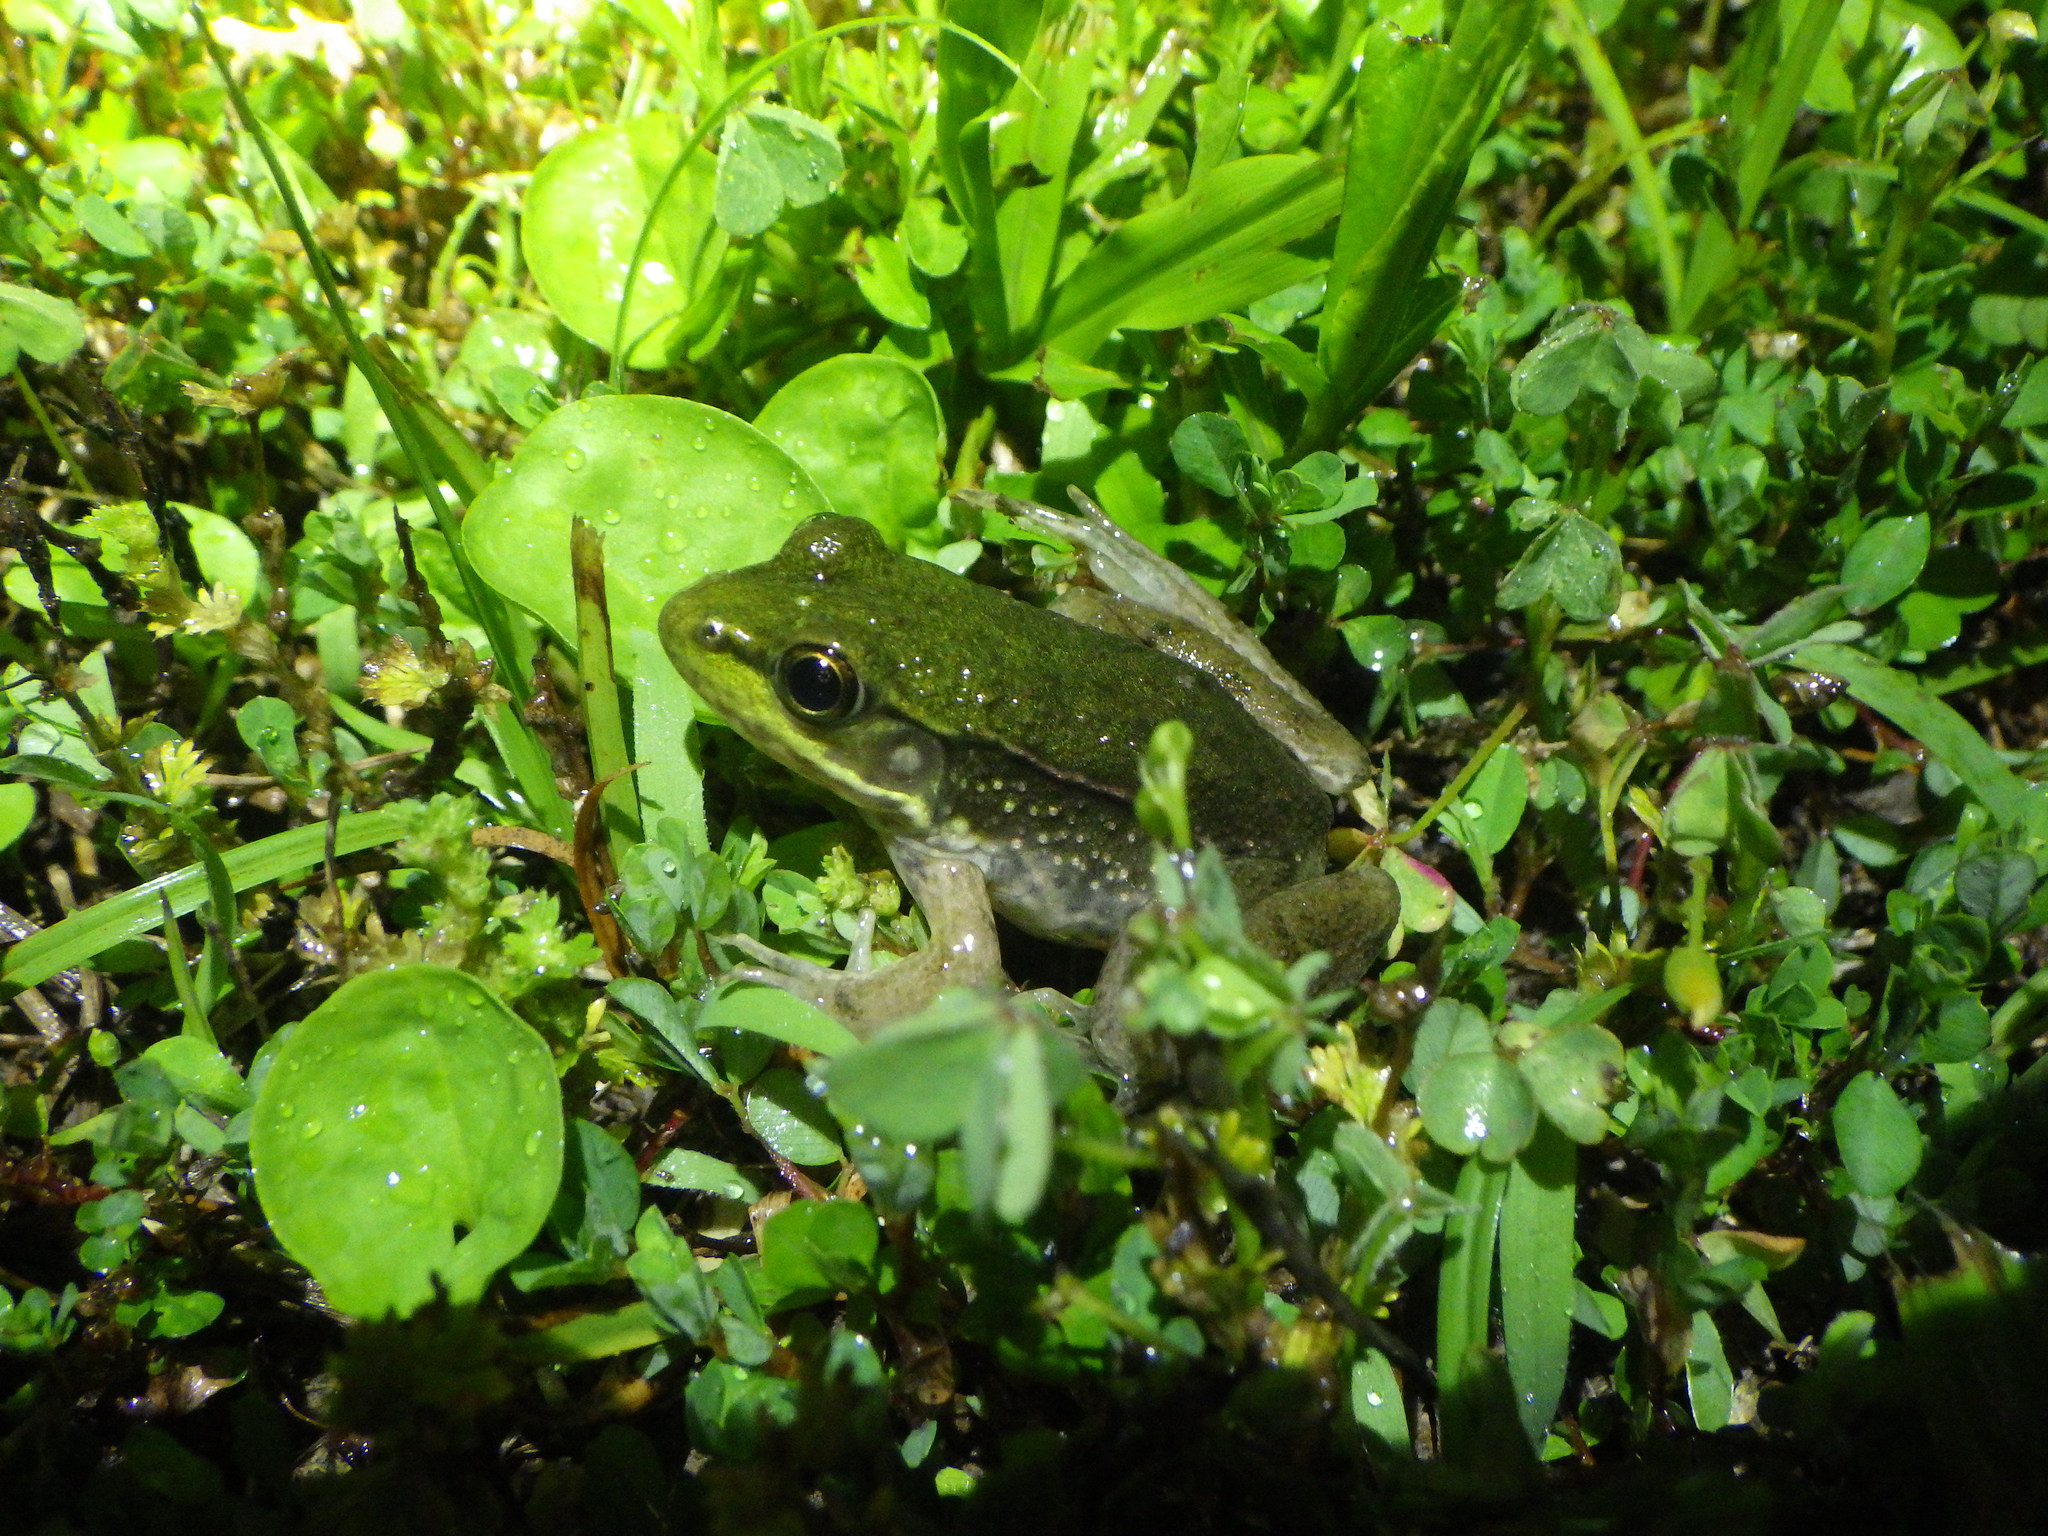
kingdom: Animalia
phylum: Chordata
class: Amphibia
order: Anura
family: Ranidae
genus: Lithobates
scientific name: Lithobates clamitans
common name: Green frog
